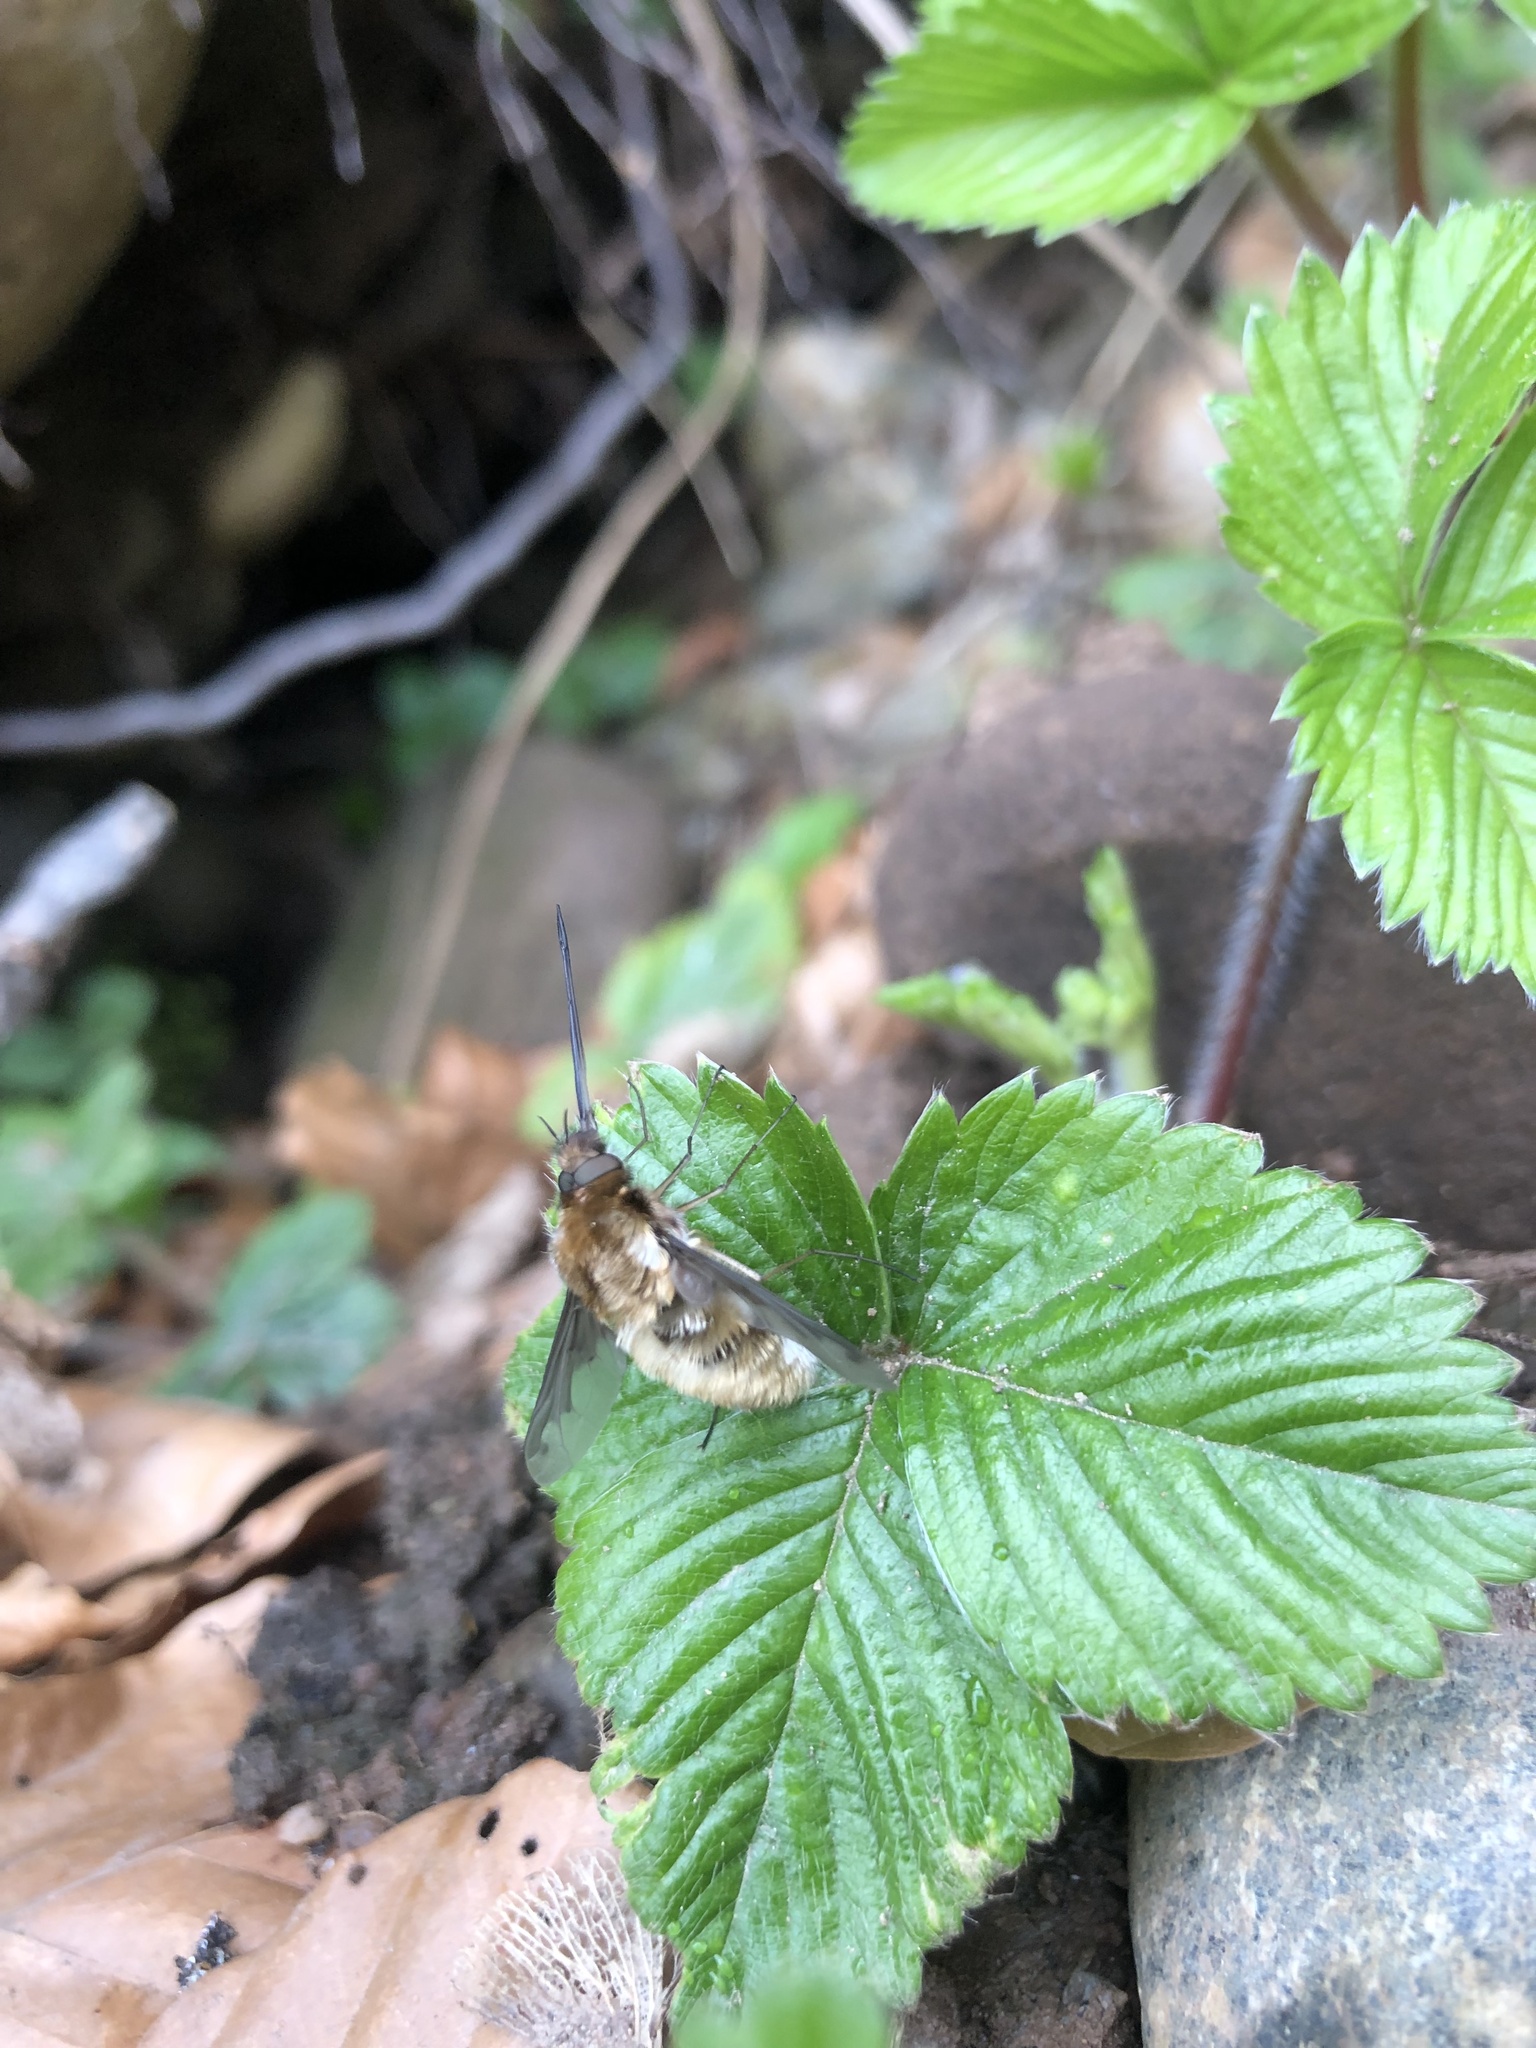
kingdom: Animalia
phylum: Arthropoda
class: Insecta
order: Diptera
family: Bombyliidae
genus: Bombylius
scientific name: Bombylius major
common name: Bee fly
